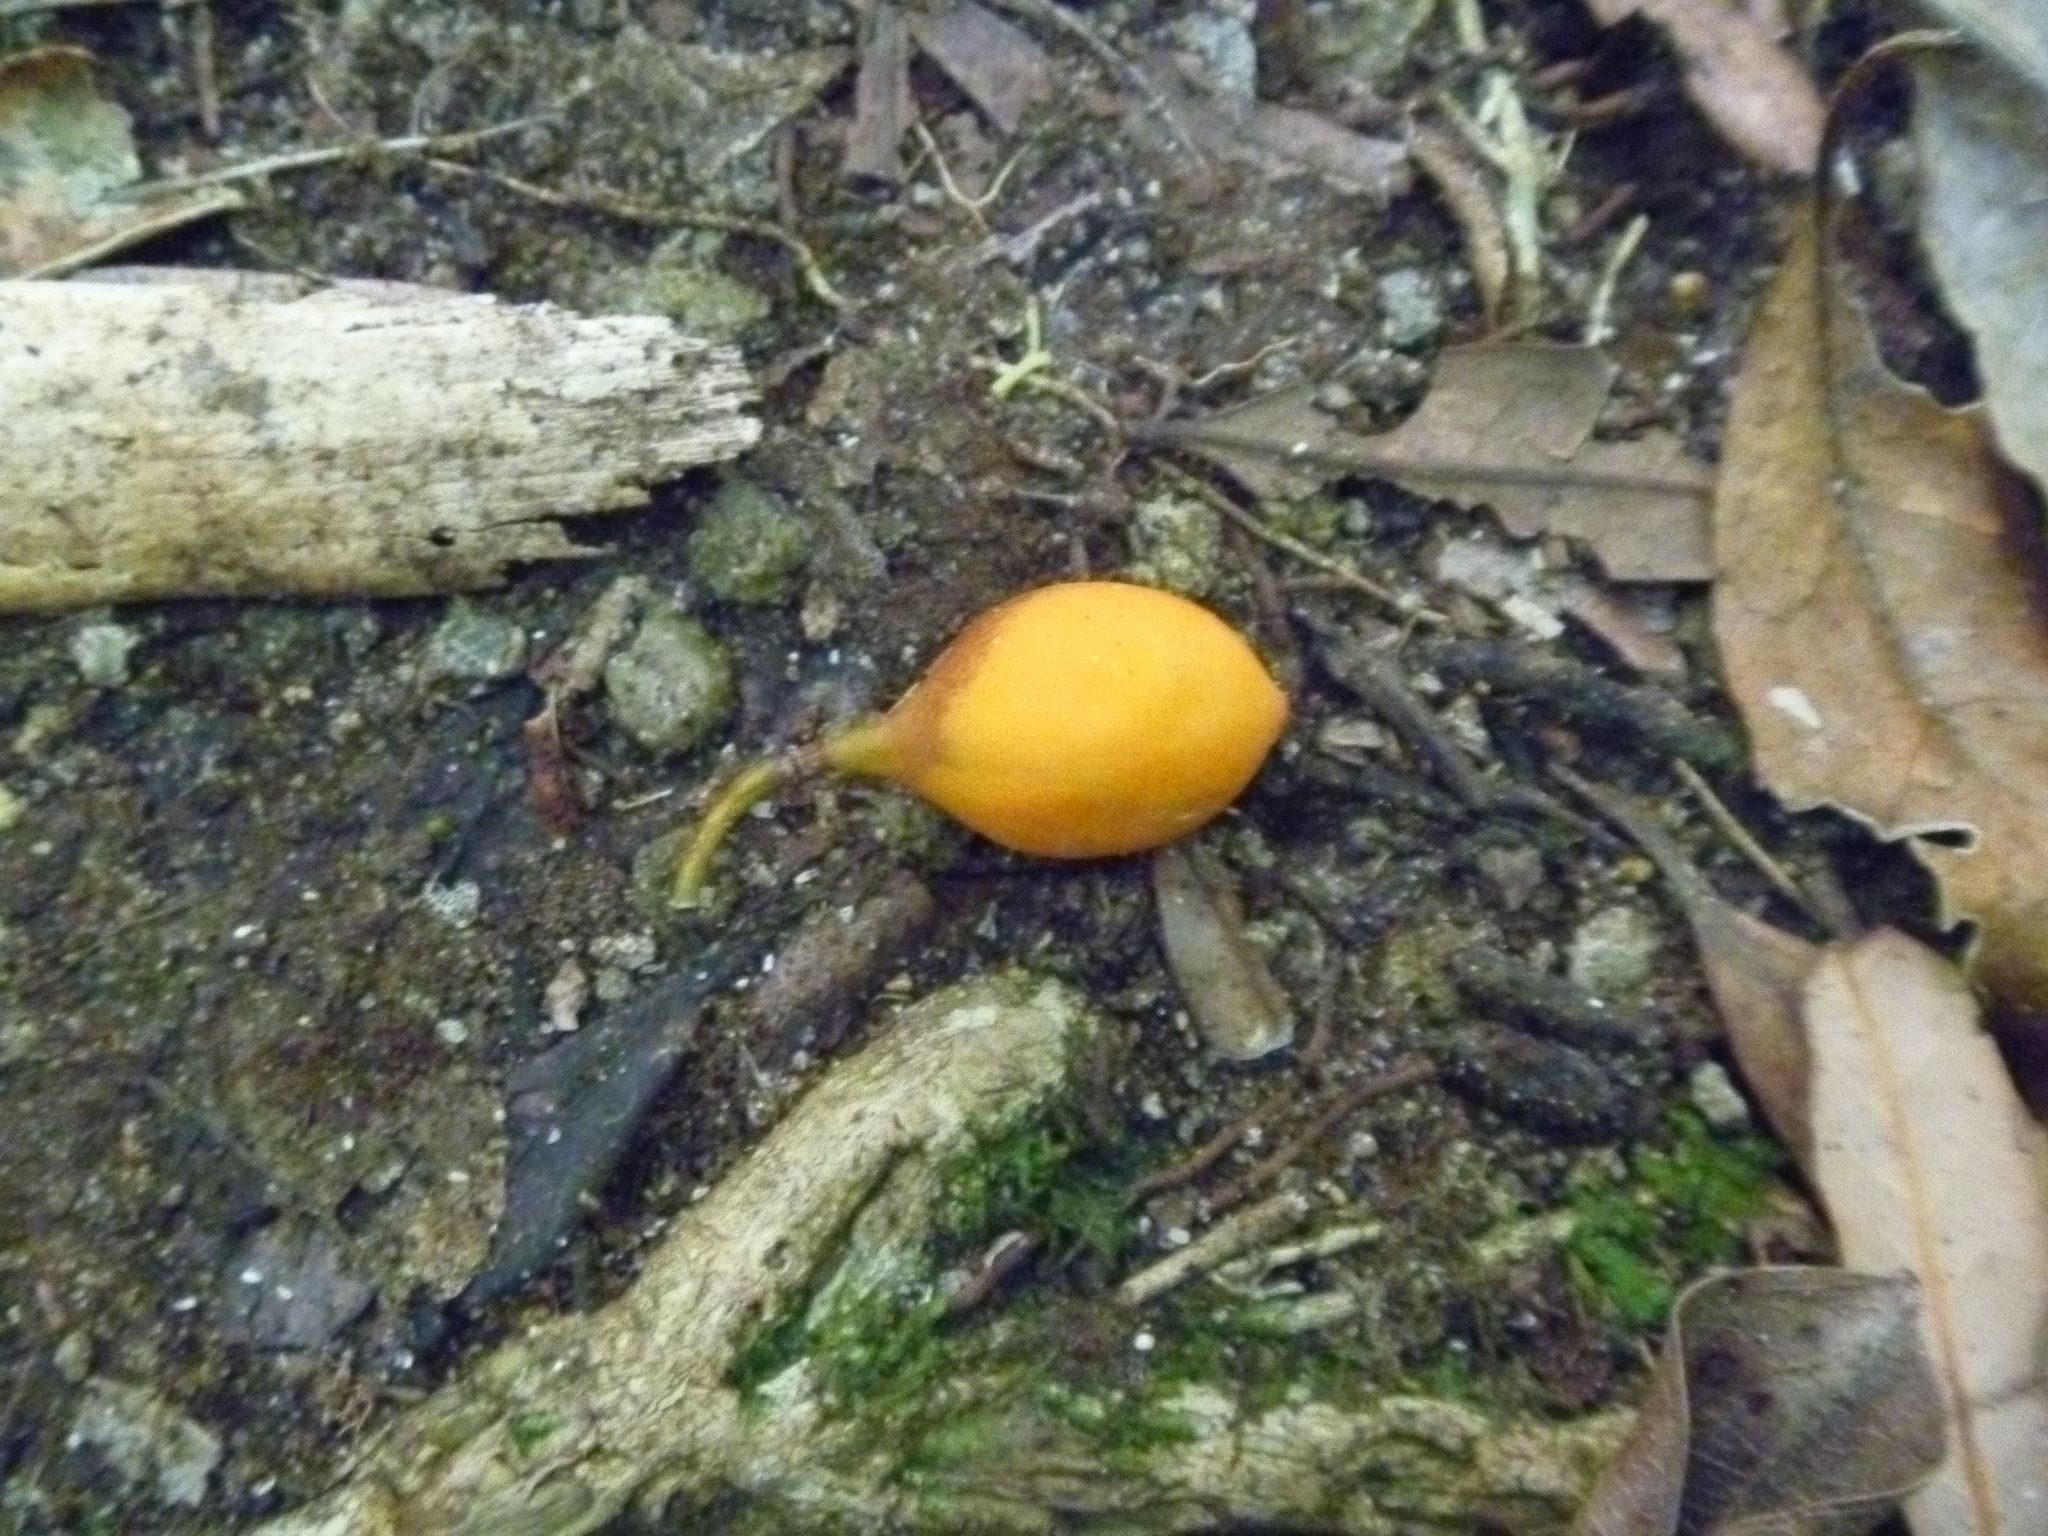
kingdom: Plantae
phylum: Tracheophyta
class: Magnoliopsida
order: Malpighiales
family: Passifloraceae
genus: Passiflora
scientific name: Passiflora tetrandra
